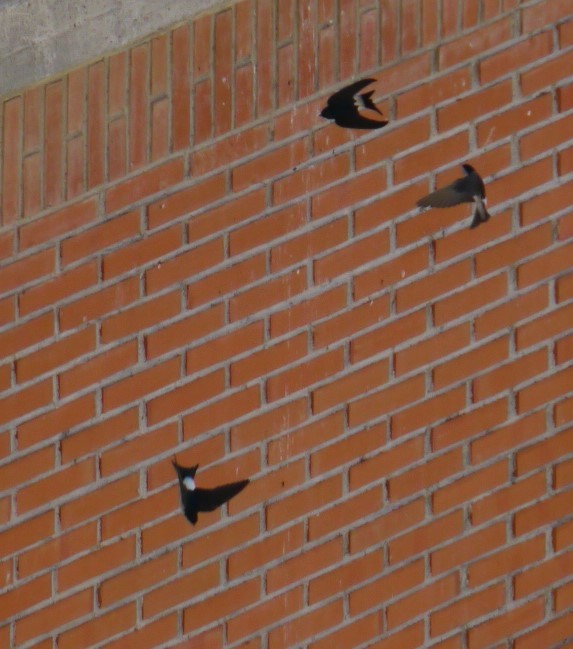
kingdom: Animalia
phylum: Chordata
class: Aves
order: Passeriformes
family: Hirundinidae
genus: Delichon
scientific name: Delichon urbicum
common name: Common house martin
